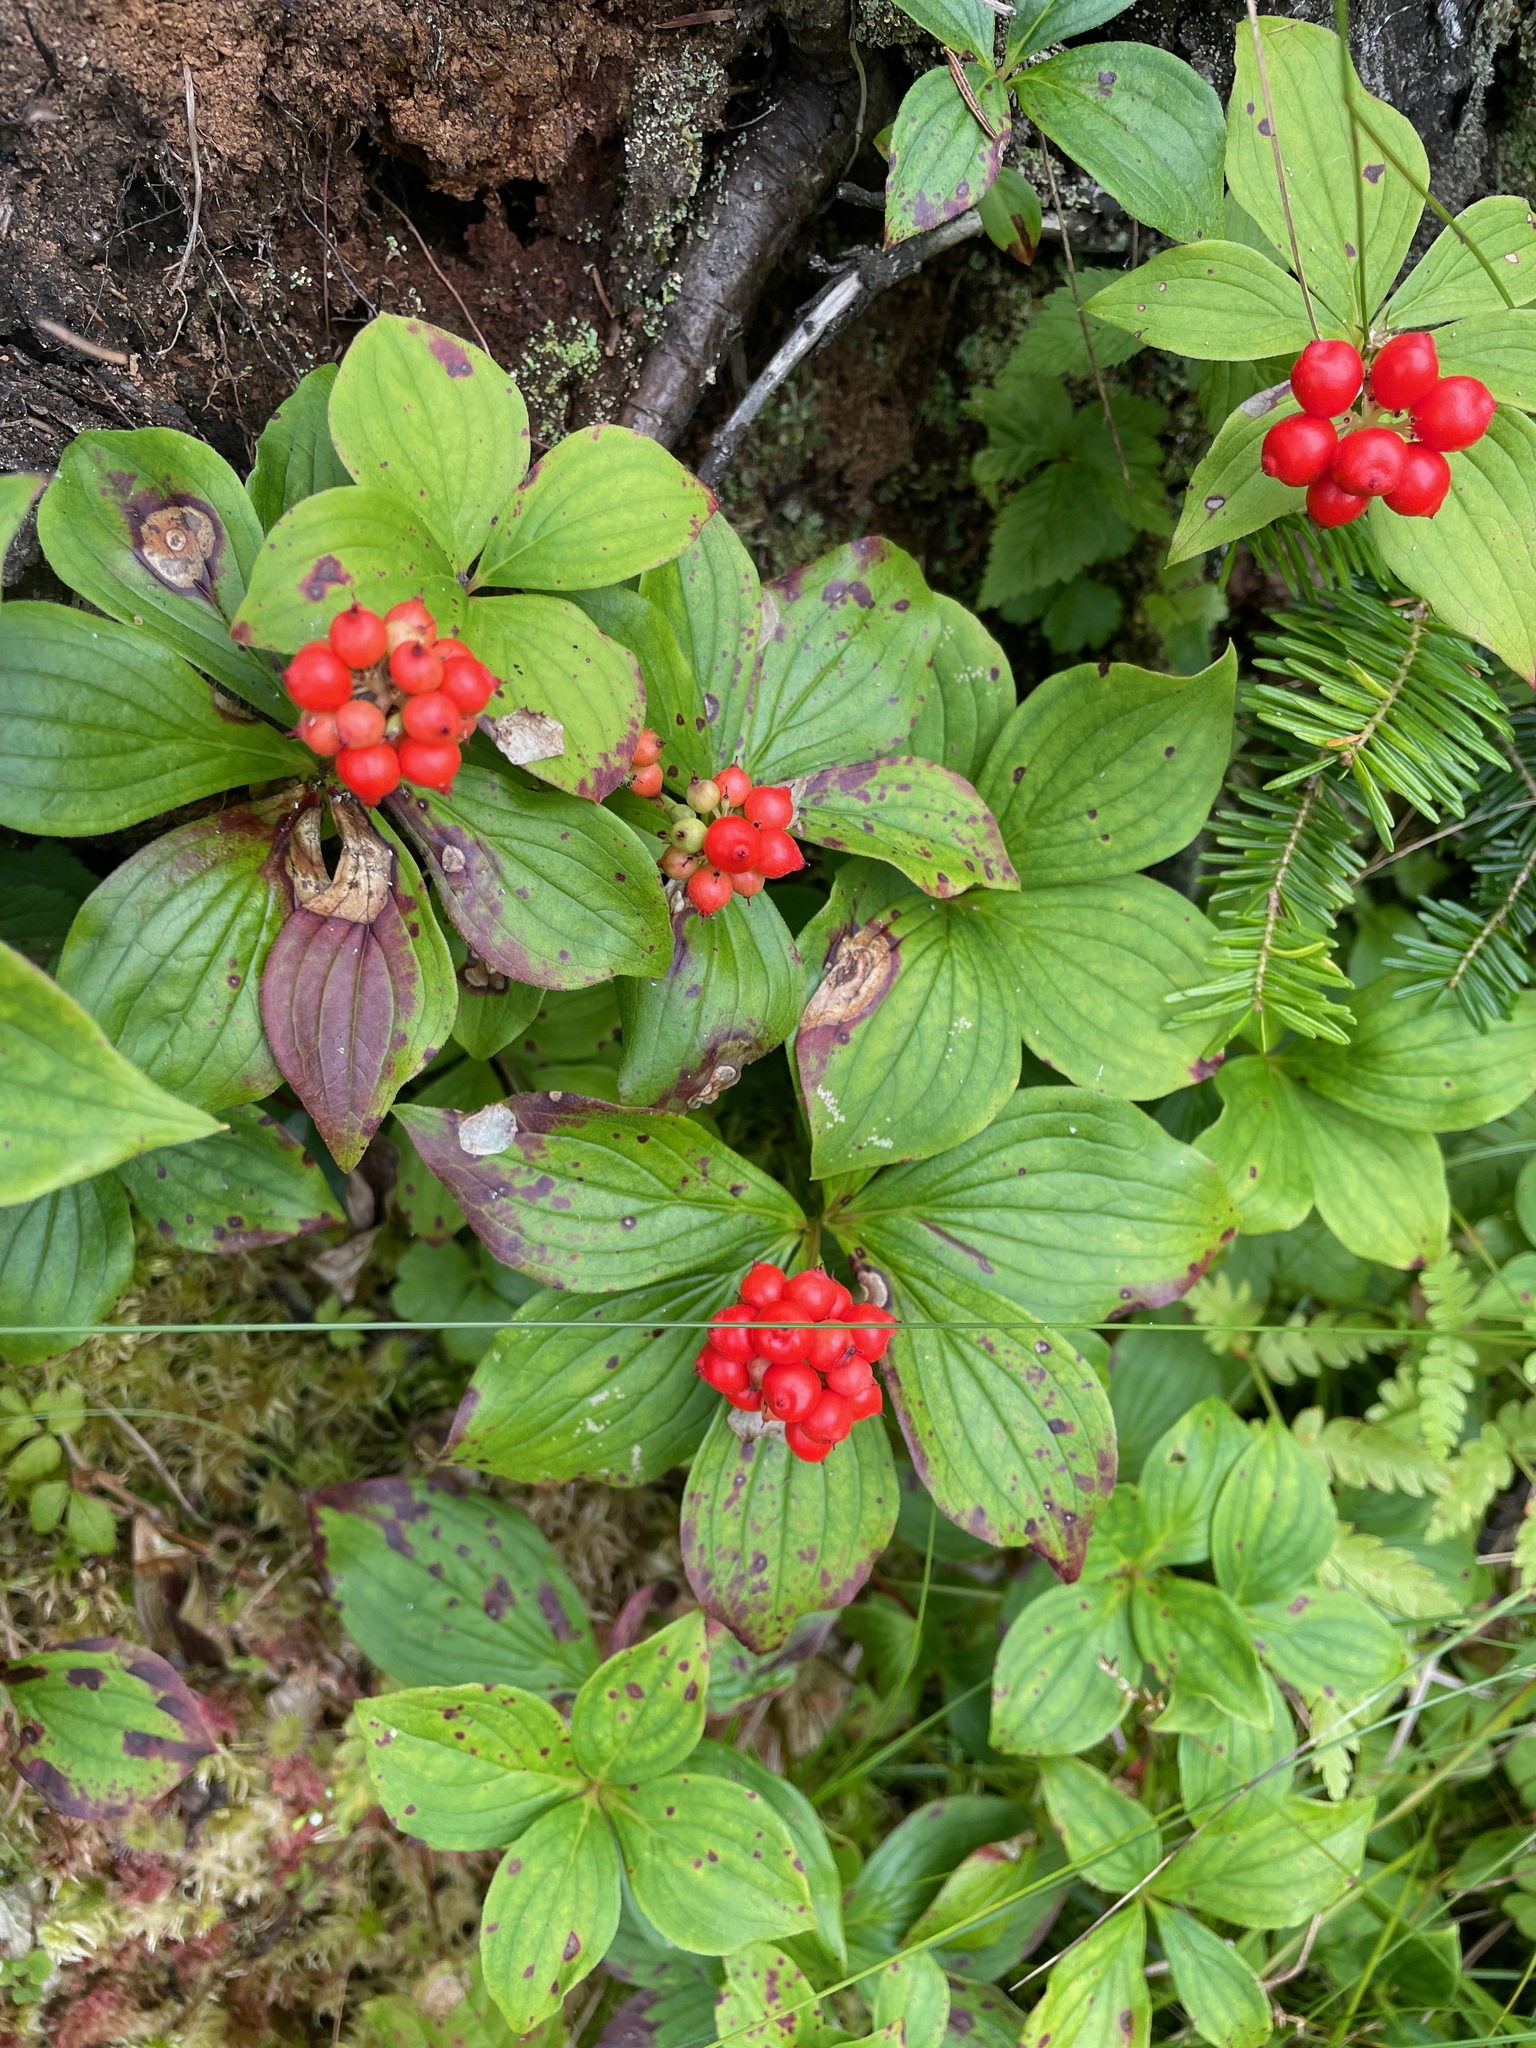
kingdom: Plantae
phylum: Tracheophyta
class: Magnoliopsida
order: Cornales
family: Cornaceae
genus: Cornus
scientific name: Cornus canadensis
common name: Creeping dogwood
